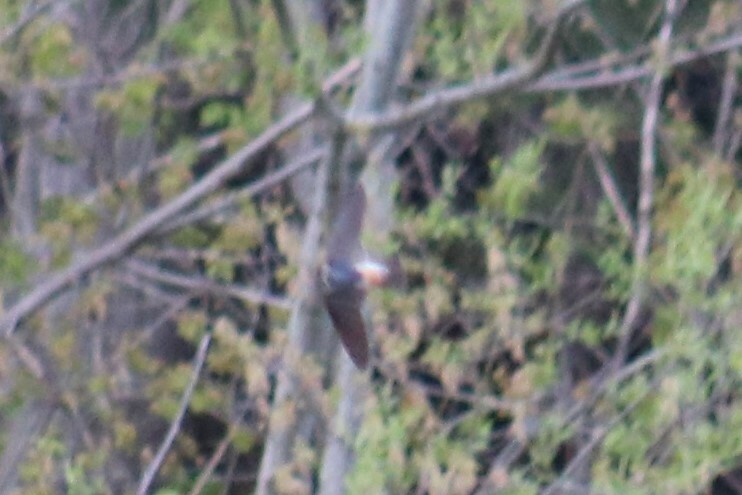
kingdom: Animalia
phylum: Chordata
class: Aves
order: Passeriformes
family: Hirundinidae
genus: Petrochelidon
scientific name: Petrochelidon pyrrhonota
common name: American cliff swallow
